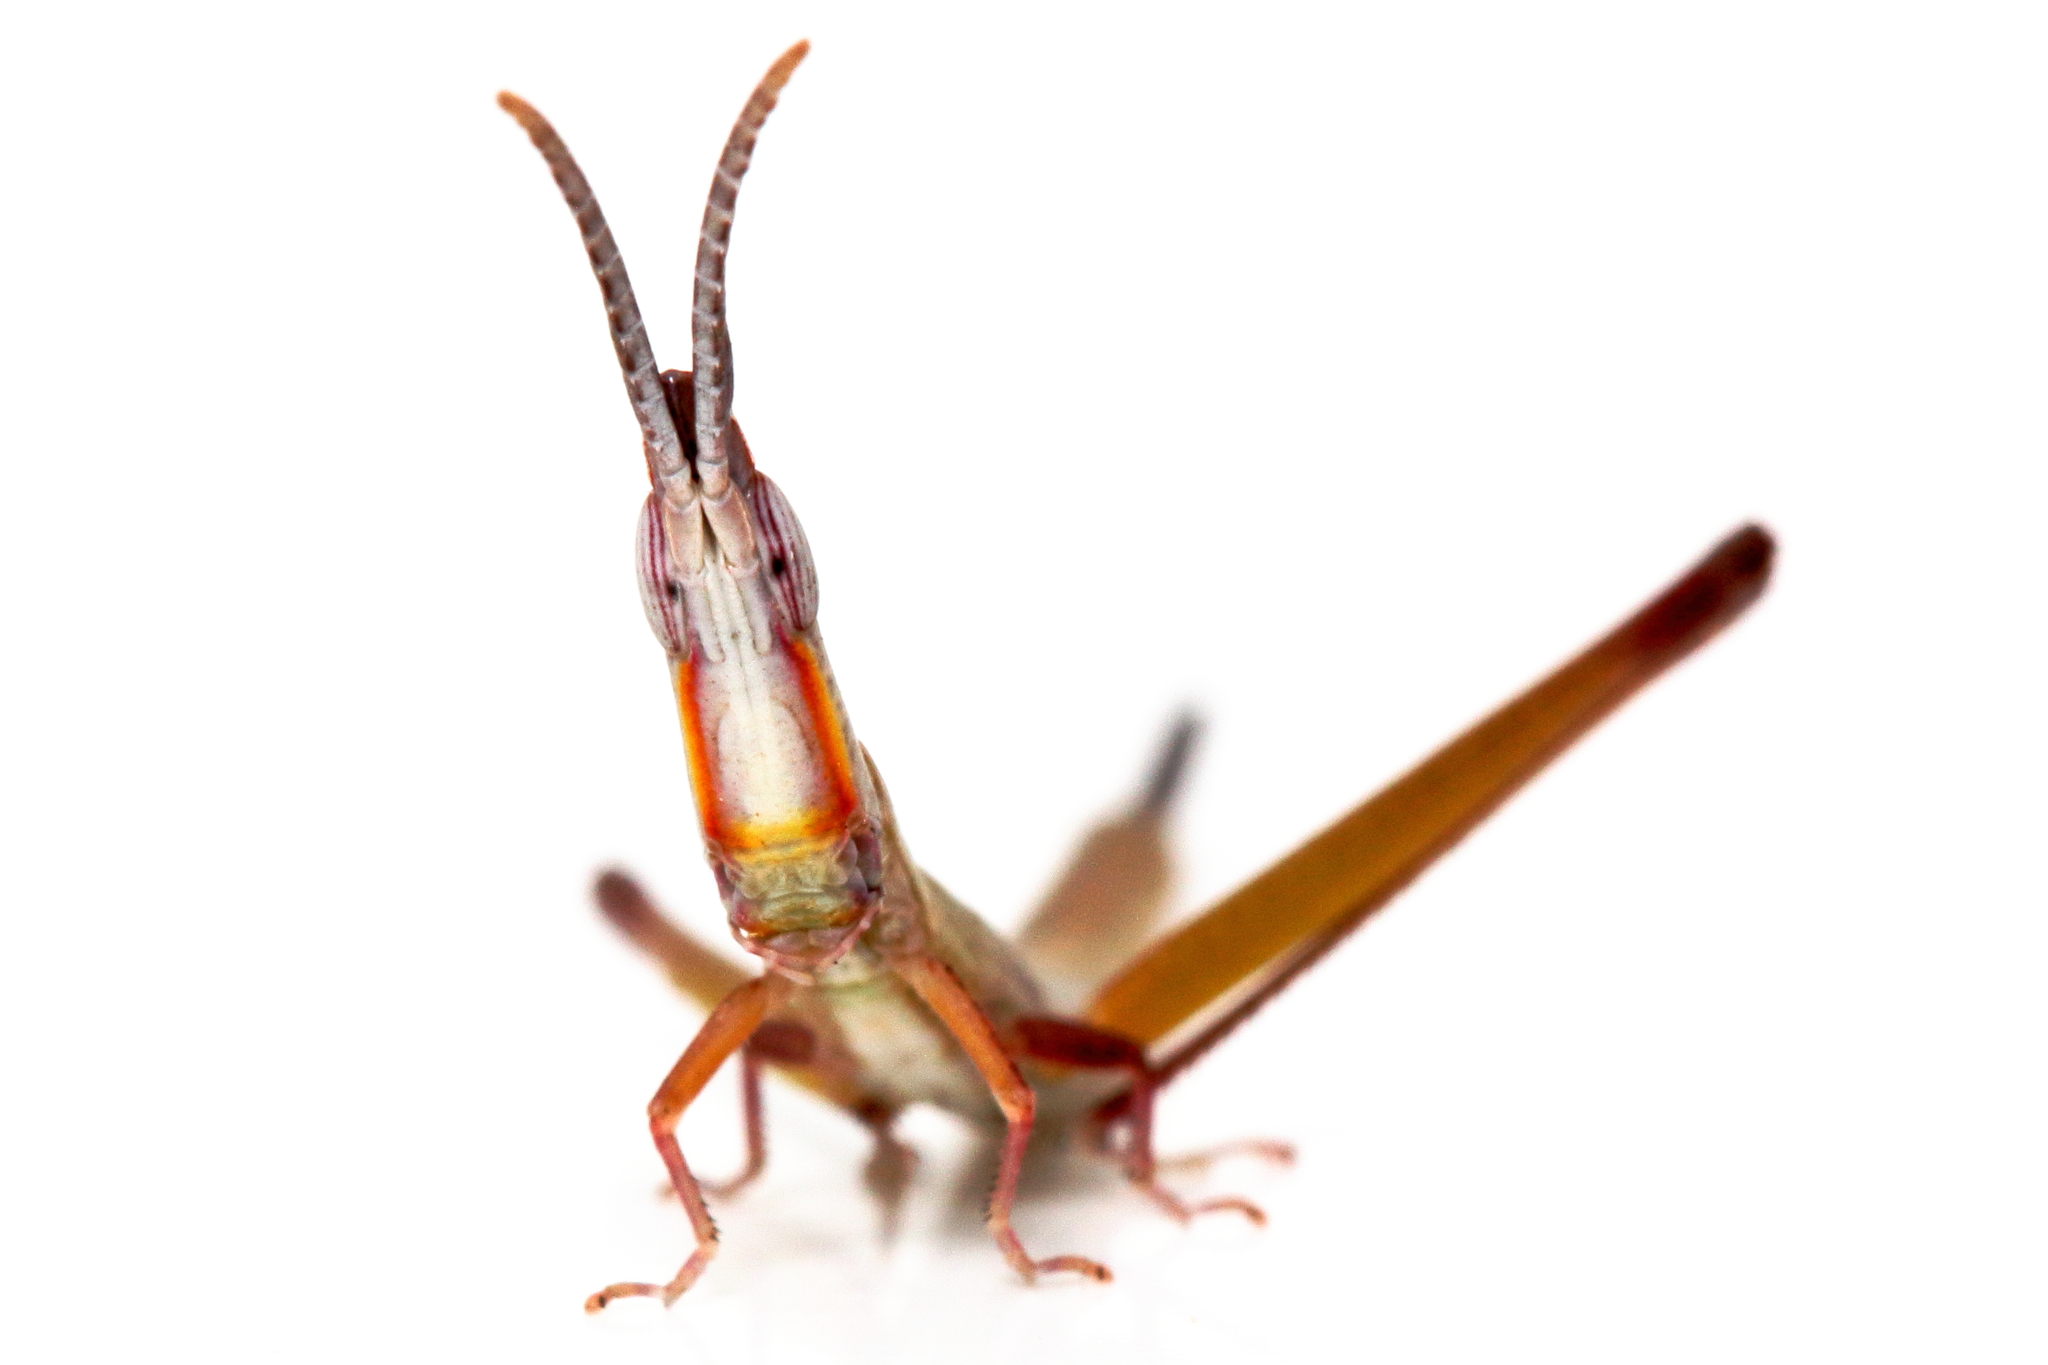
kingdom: Animalia
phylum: Arthropoda
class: Insecta
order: Orthoptera
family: Morabidae
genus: Warramaba
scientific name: Warramaba whitei
